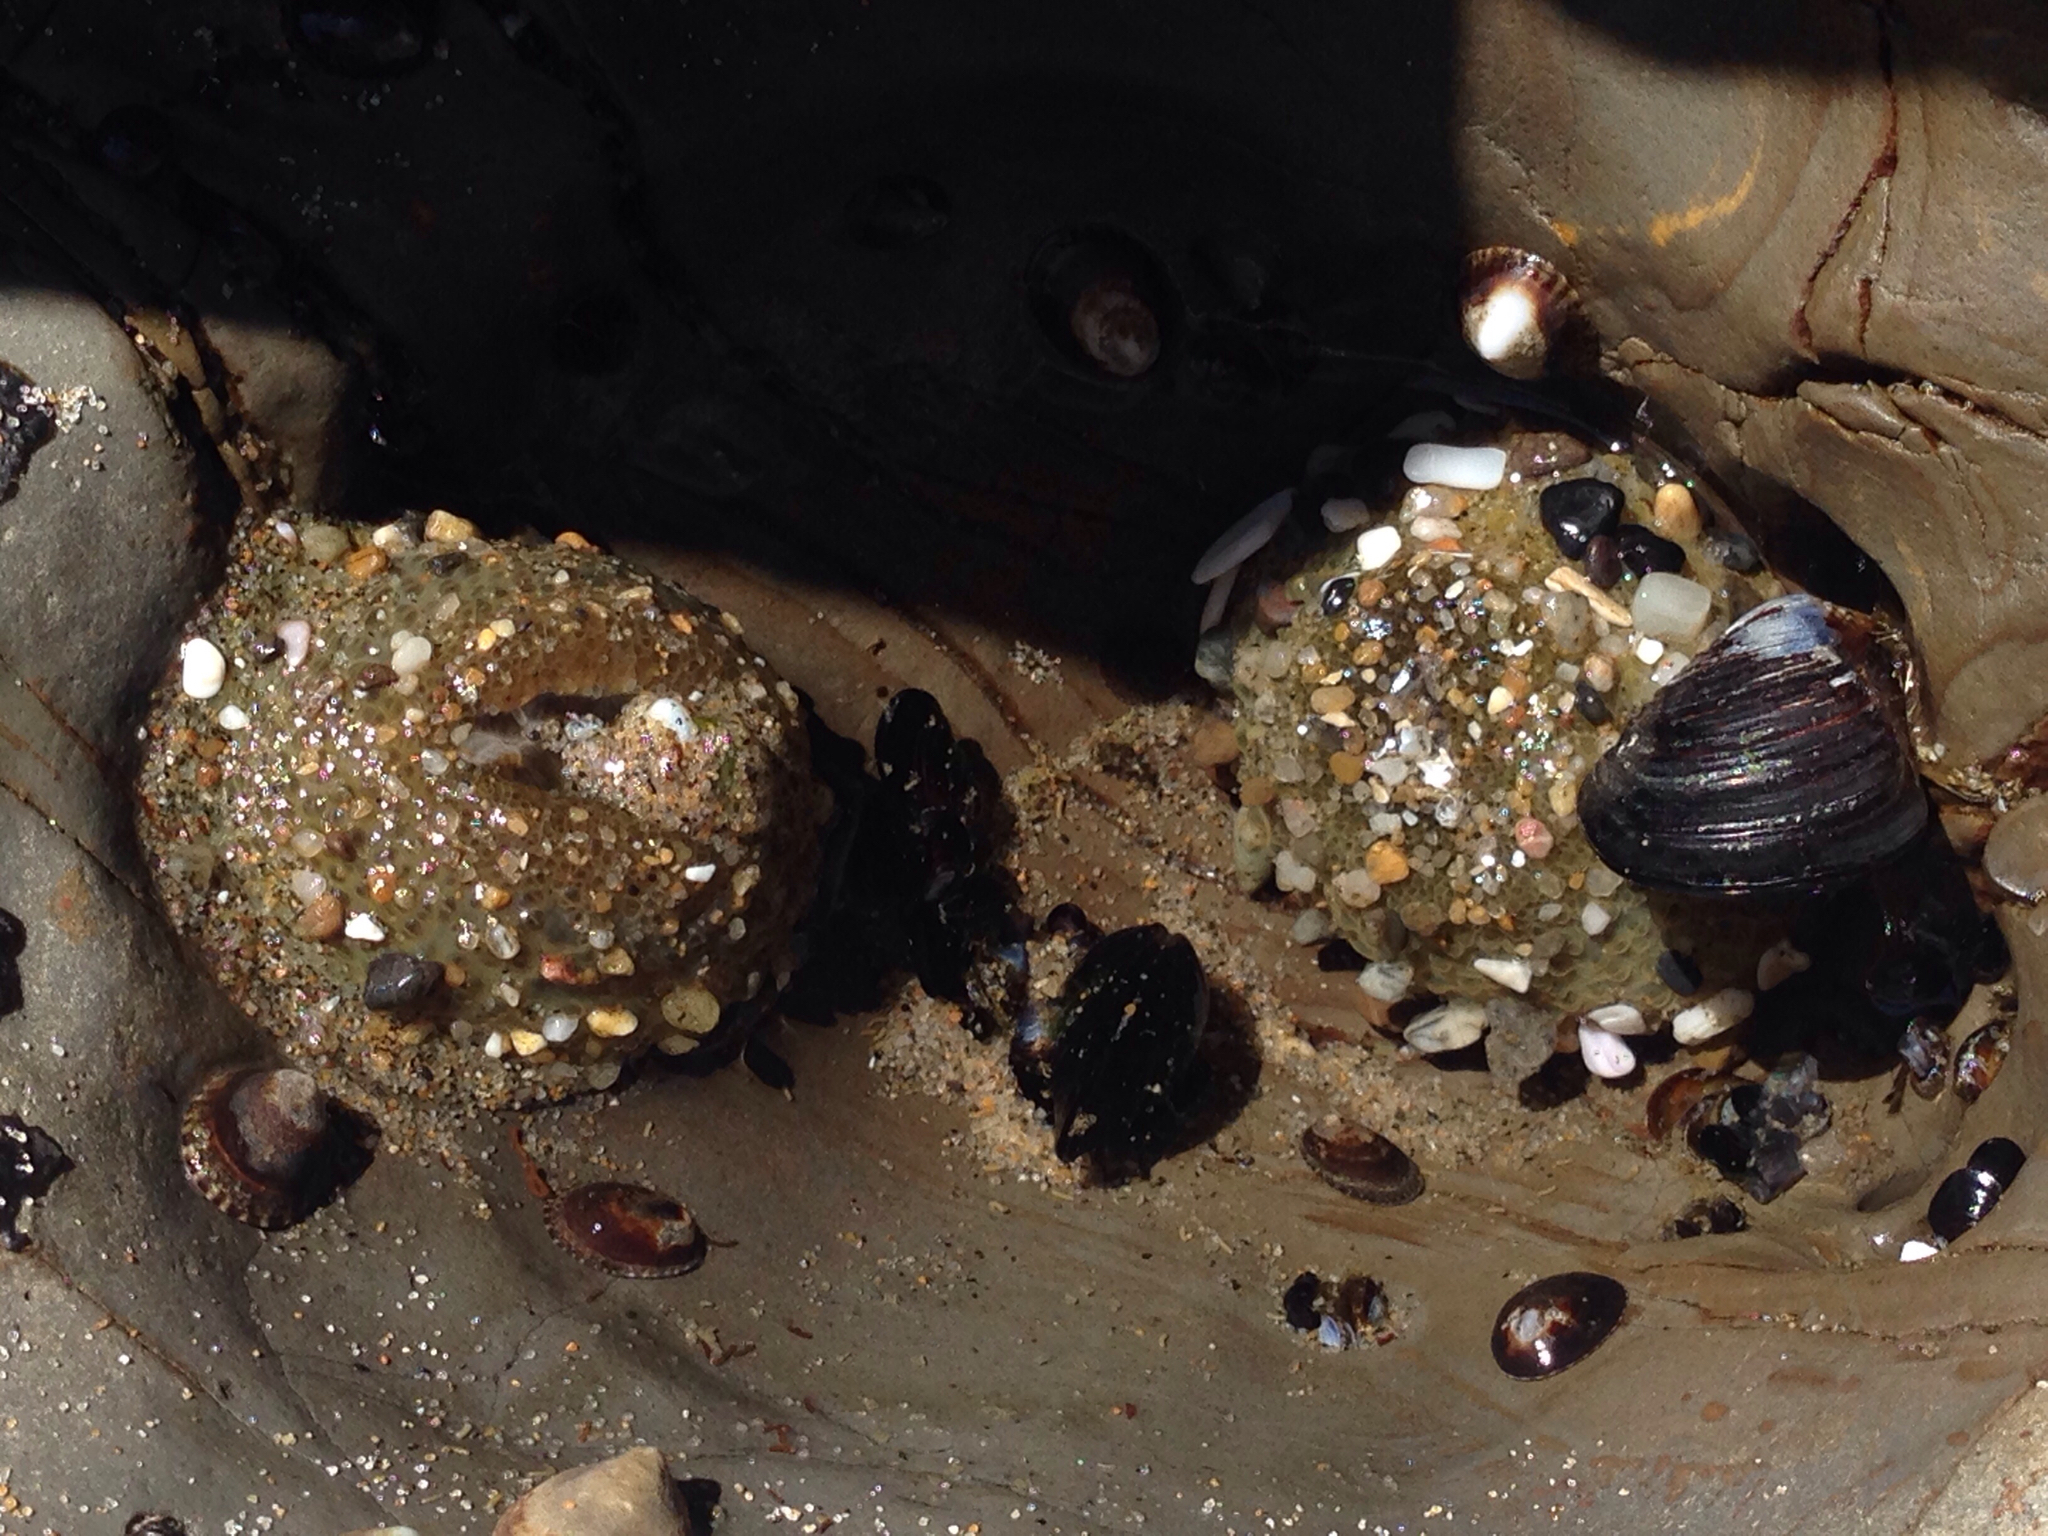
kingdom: Animalia
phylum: Cnidaria
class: Anthozoa
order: Actiniaria
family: Actiniidae
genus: Anthopleura
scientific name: Anthopleura elegantissima
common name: Clonal anemone
